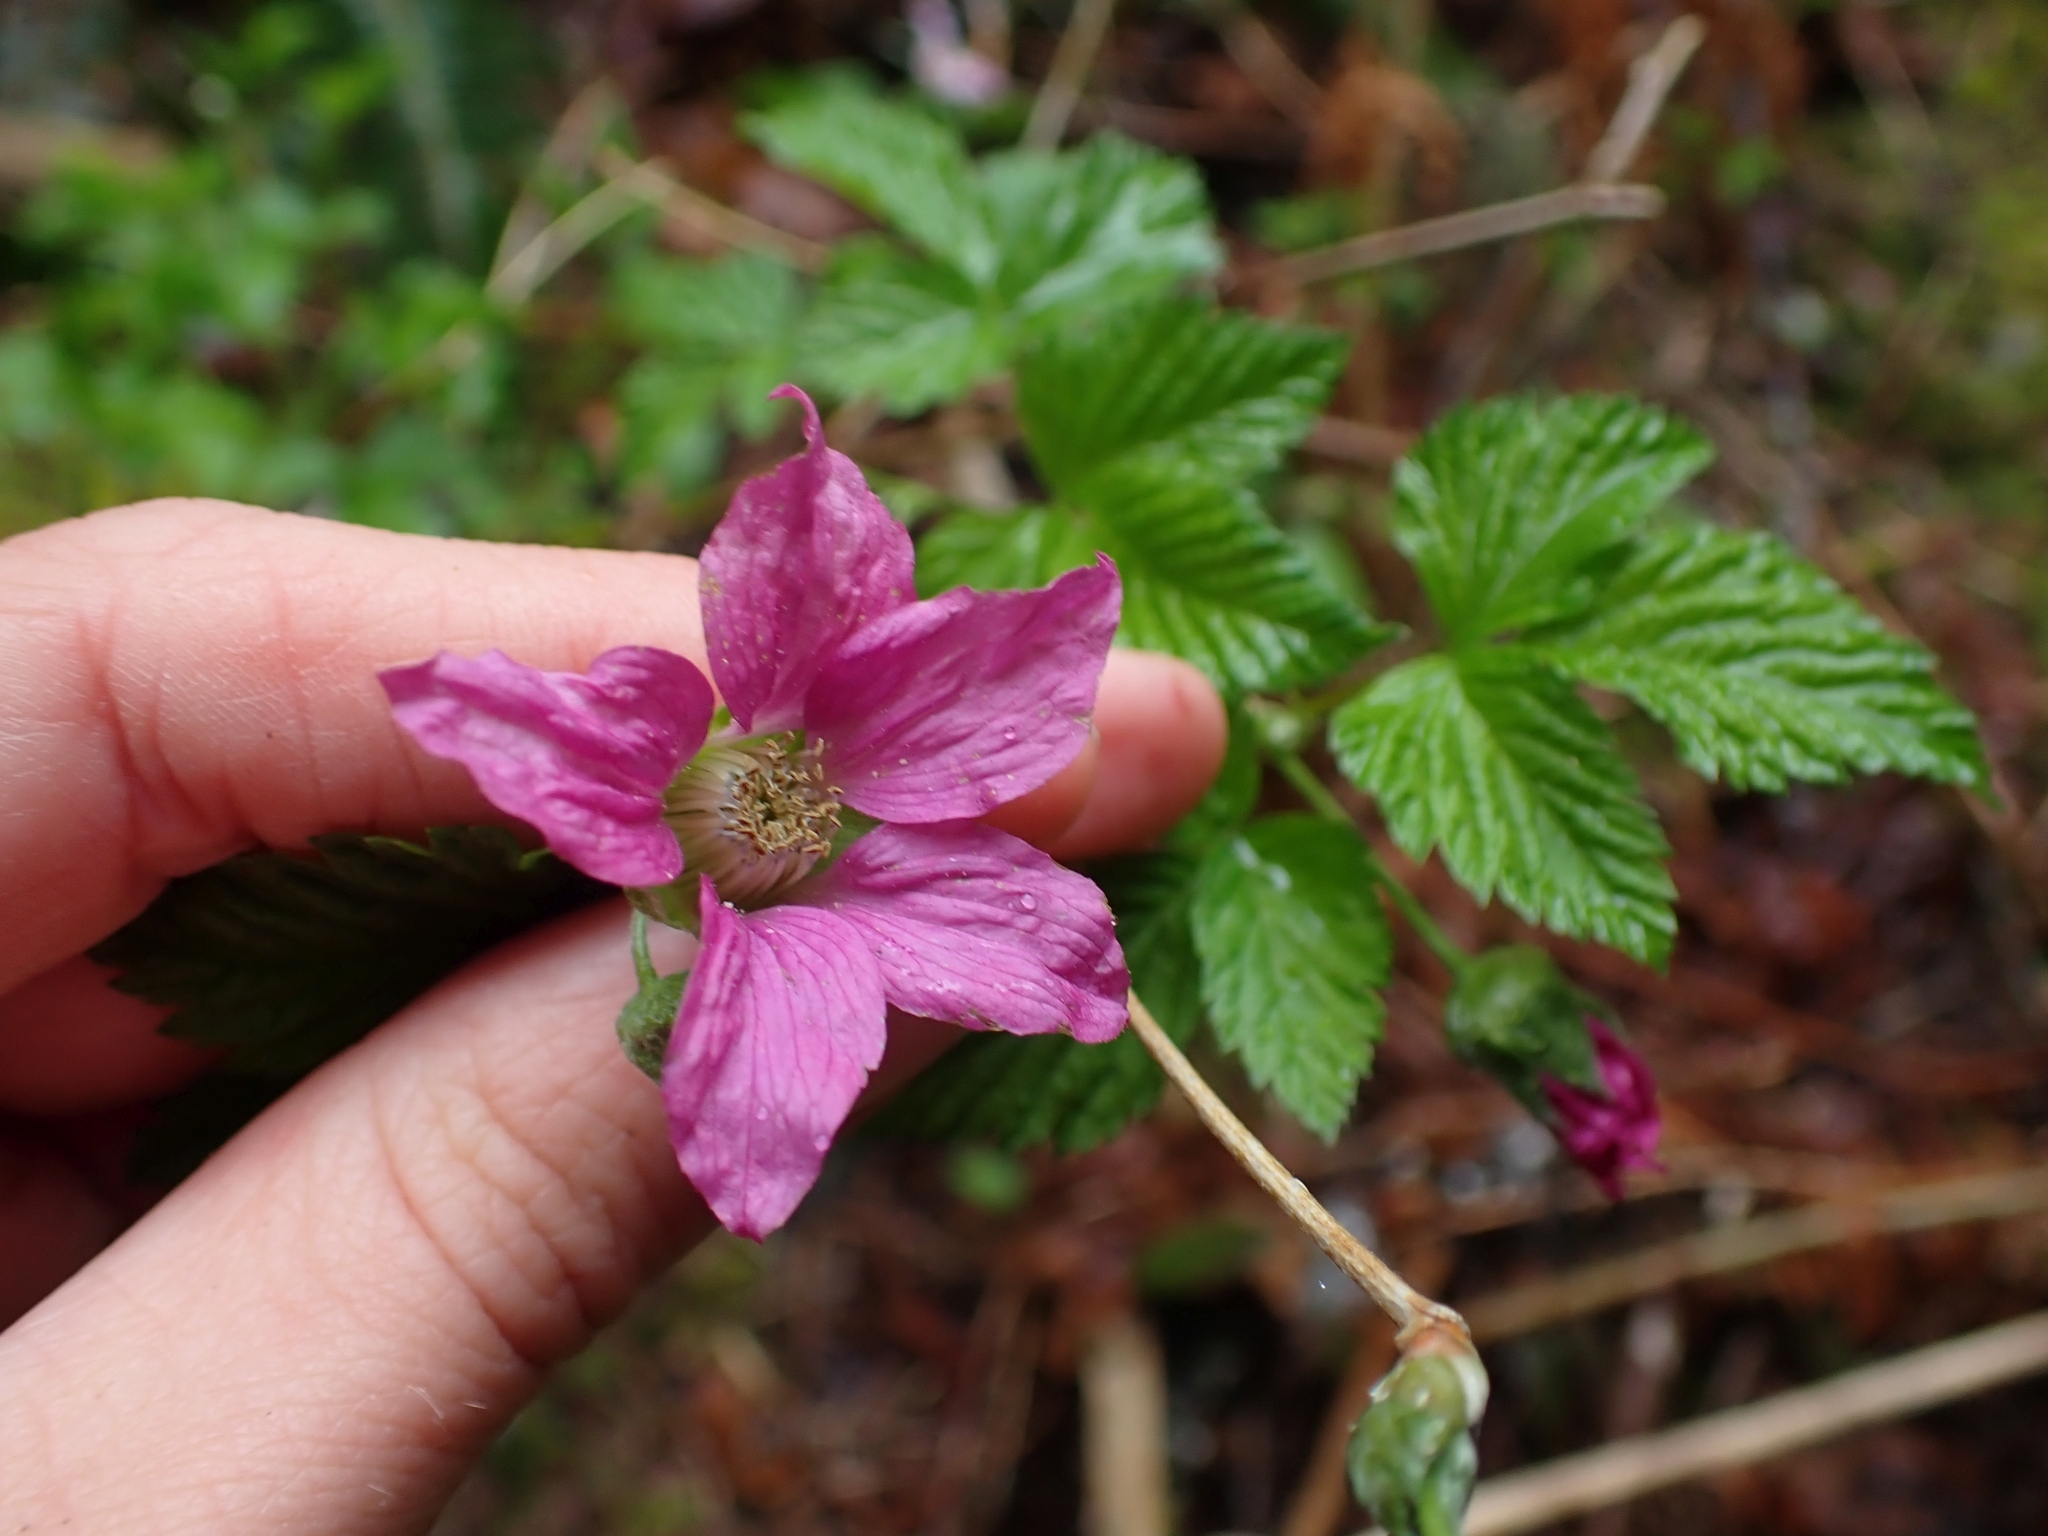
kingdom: Plantae
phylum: Tracheophyta
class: Magnoliopsida
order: Rosales
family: Rosaceae
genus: Rubus
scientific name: Rubus spectabilis
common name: Salmonberry
